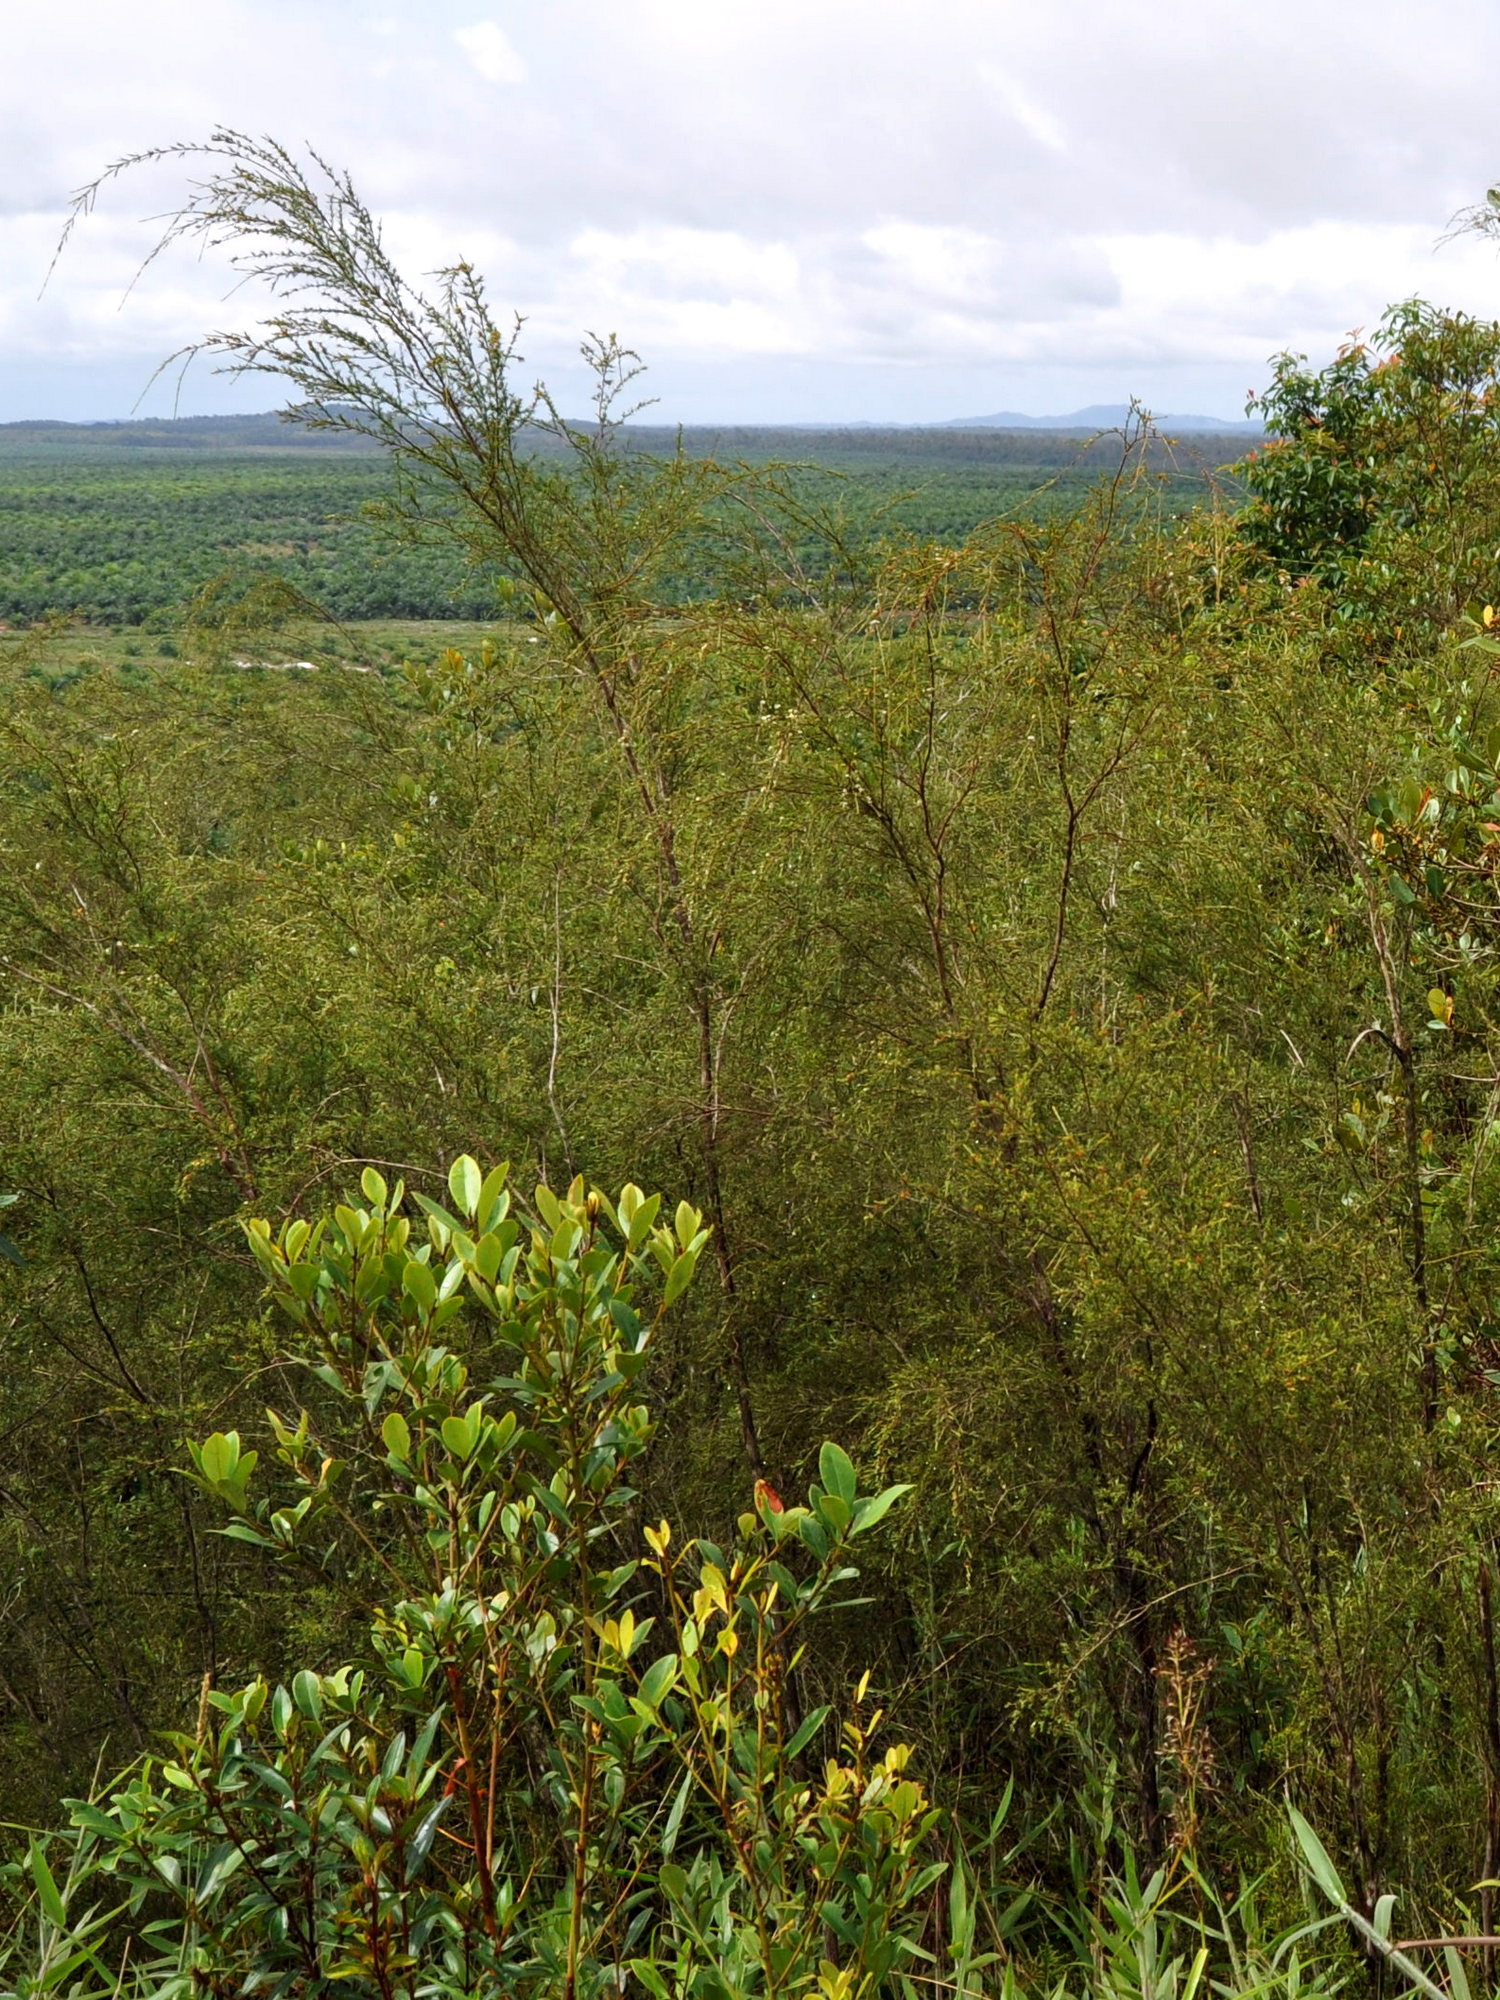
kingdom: Plantae
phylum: Tracheophyta
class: Magnoliopsida
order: Myrtales
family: Myrtaceae
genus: Baeckea
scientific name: Baeckea frutescens
